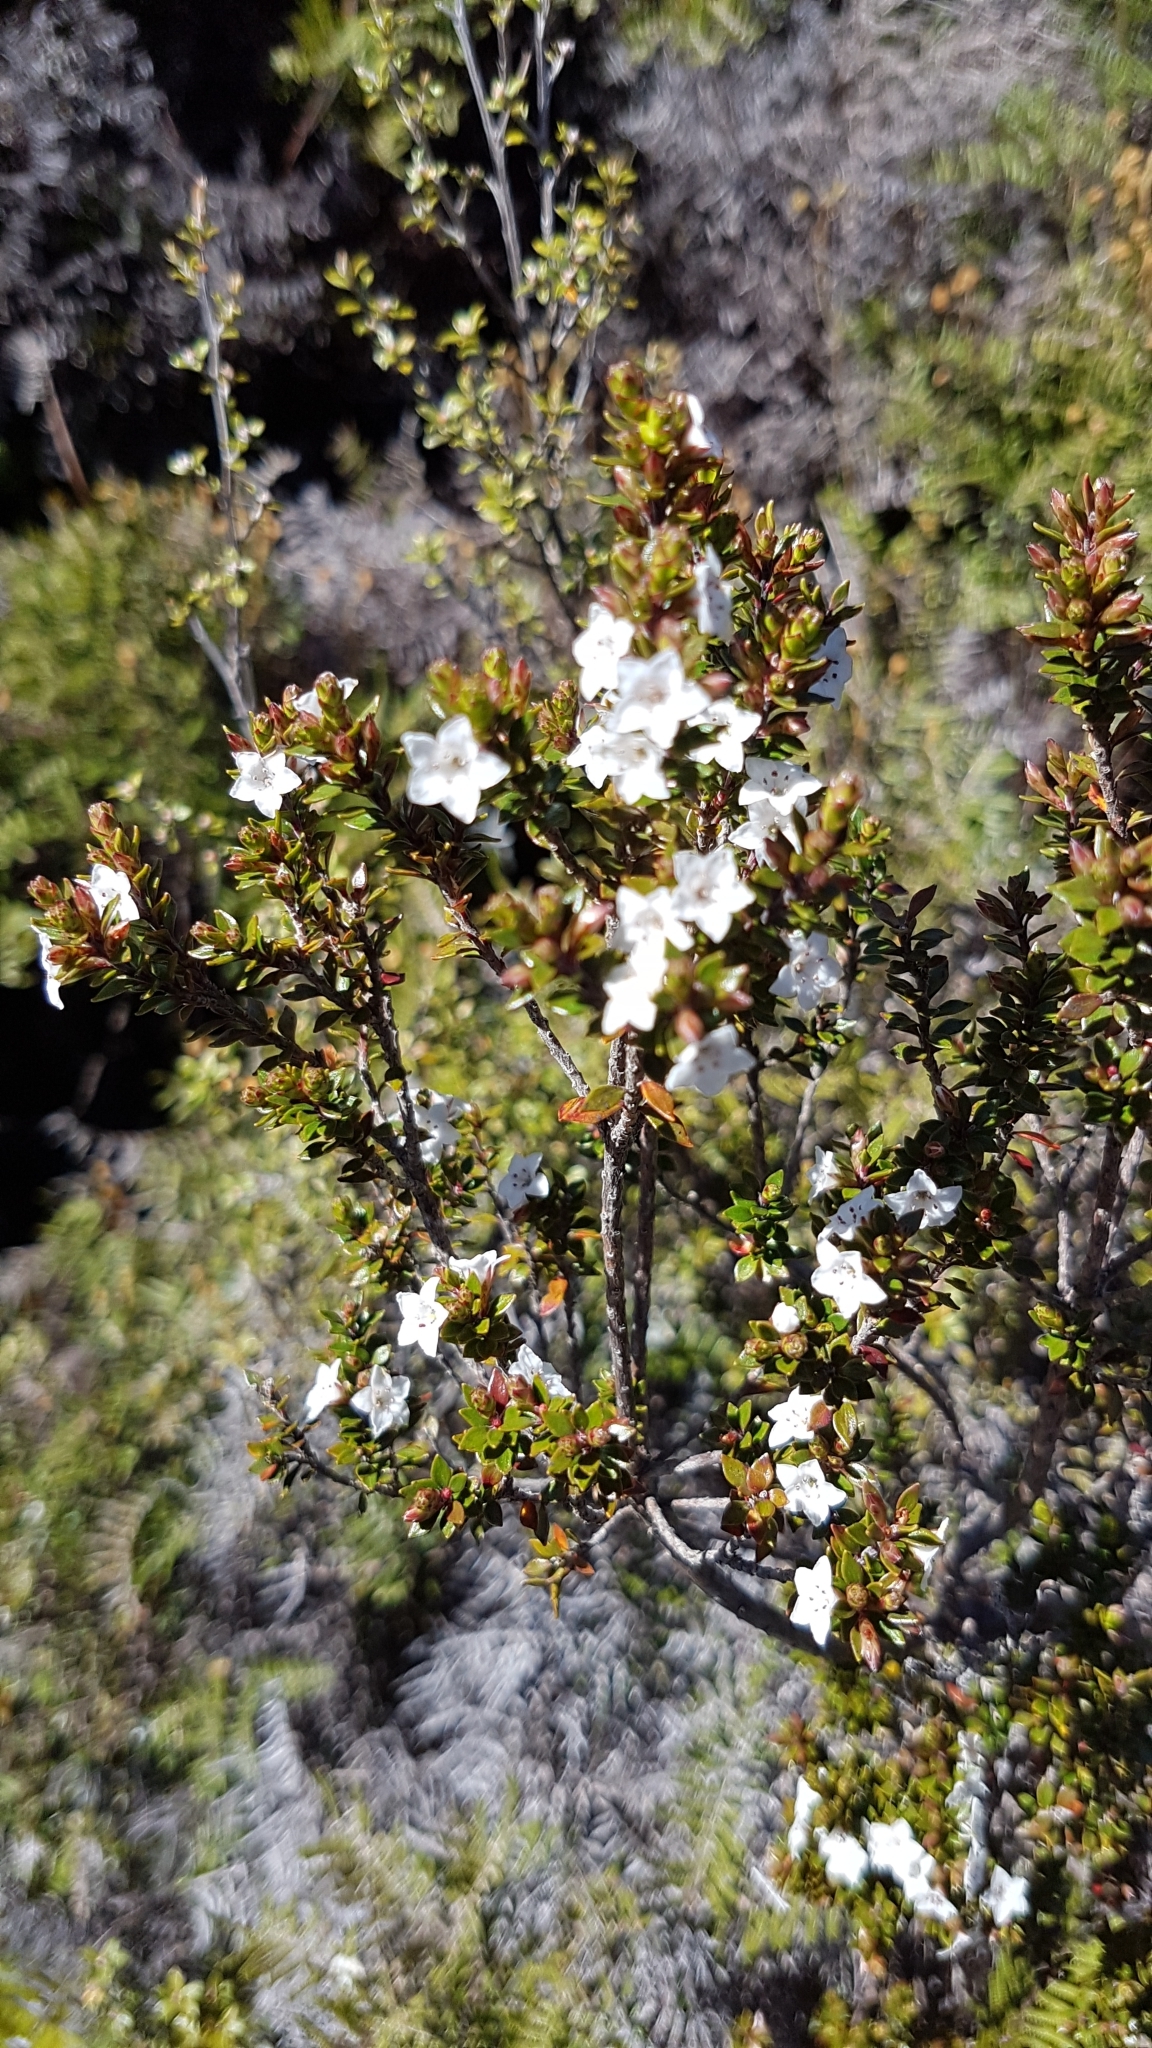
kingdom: Plantae
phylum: Tracheophyta
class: Magnoliopsida
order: Ericales
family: Ericaceae
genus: Epacris
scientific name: Epacris pauciflora
